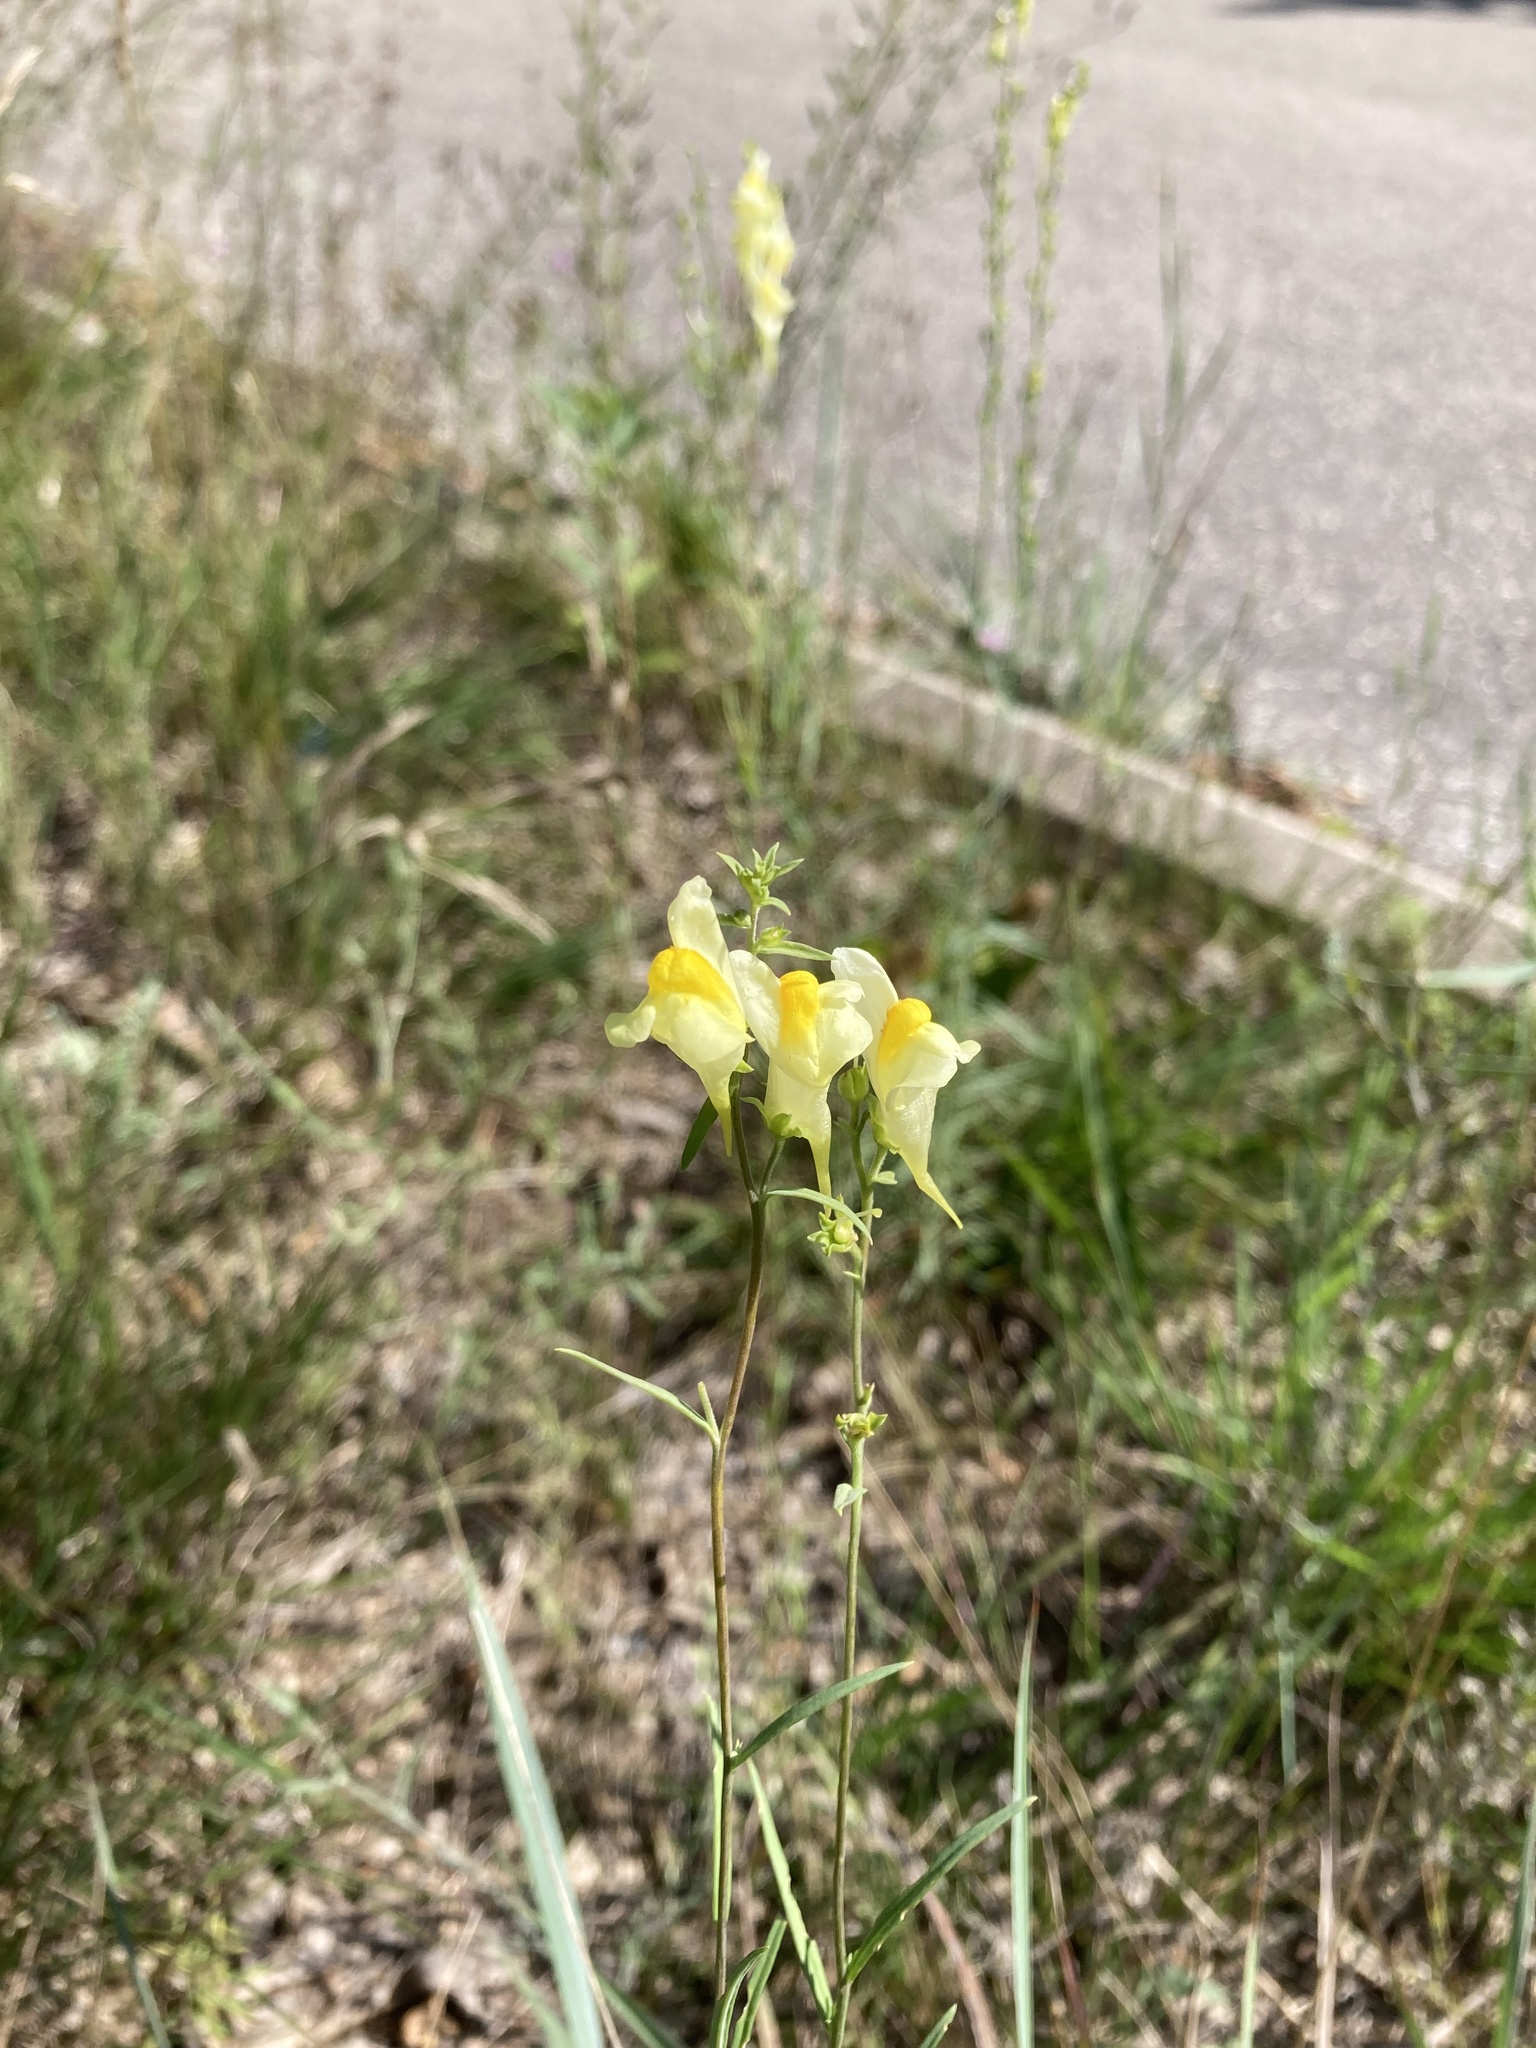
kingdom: Plantae
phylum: Tracheophyta
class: Magnoliopsida
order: Lamiales
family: Plantaginaceae
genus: Linaria
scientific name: Linaria vulgaris
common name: Butter and eggs
